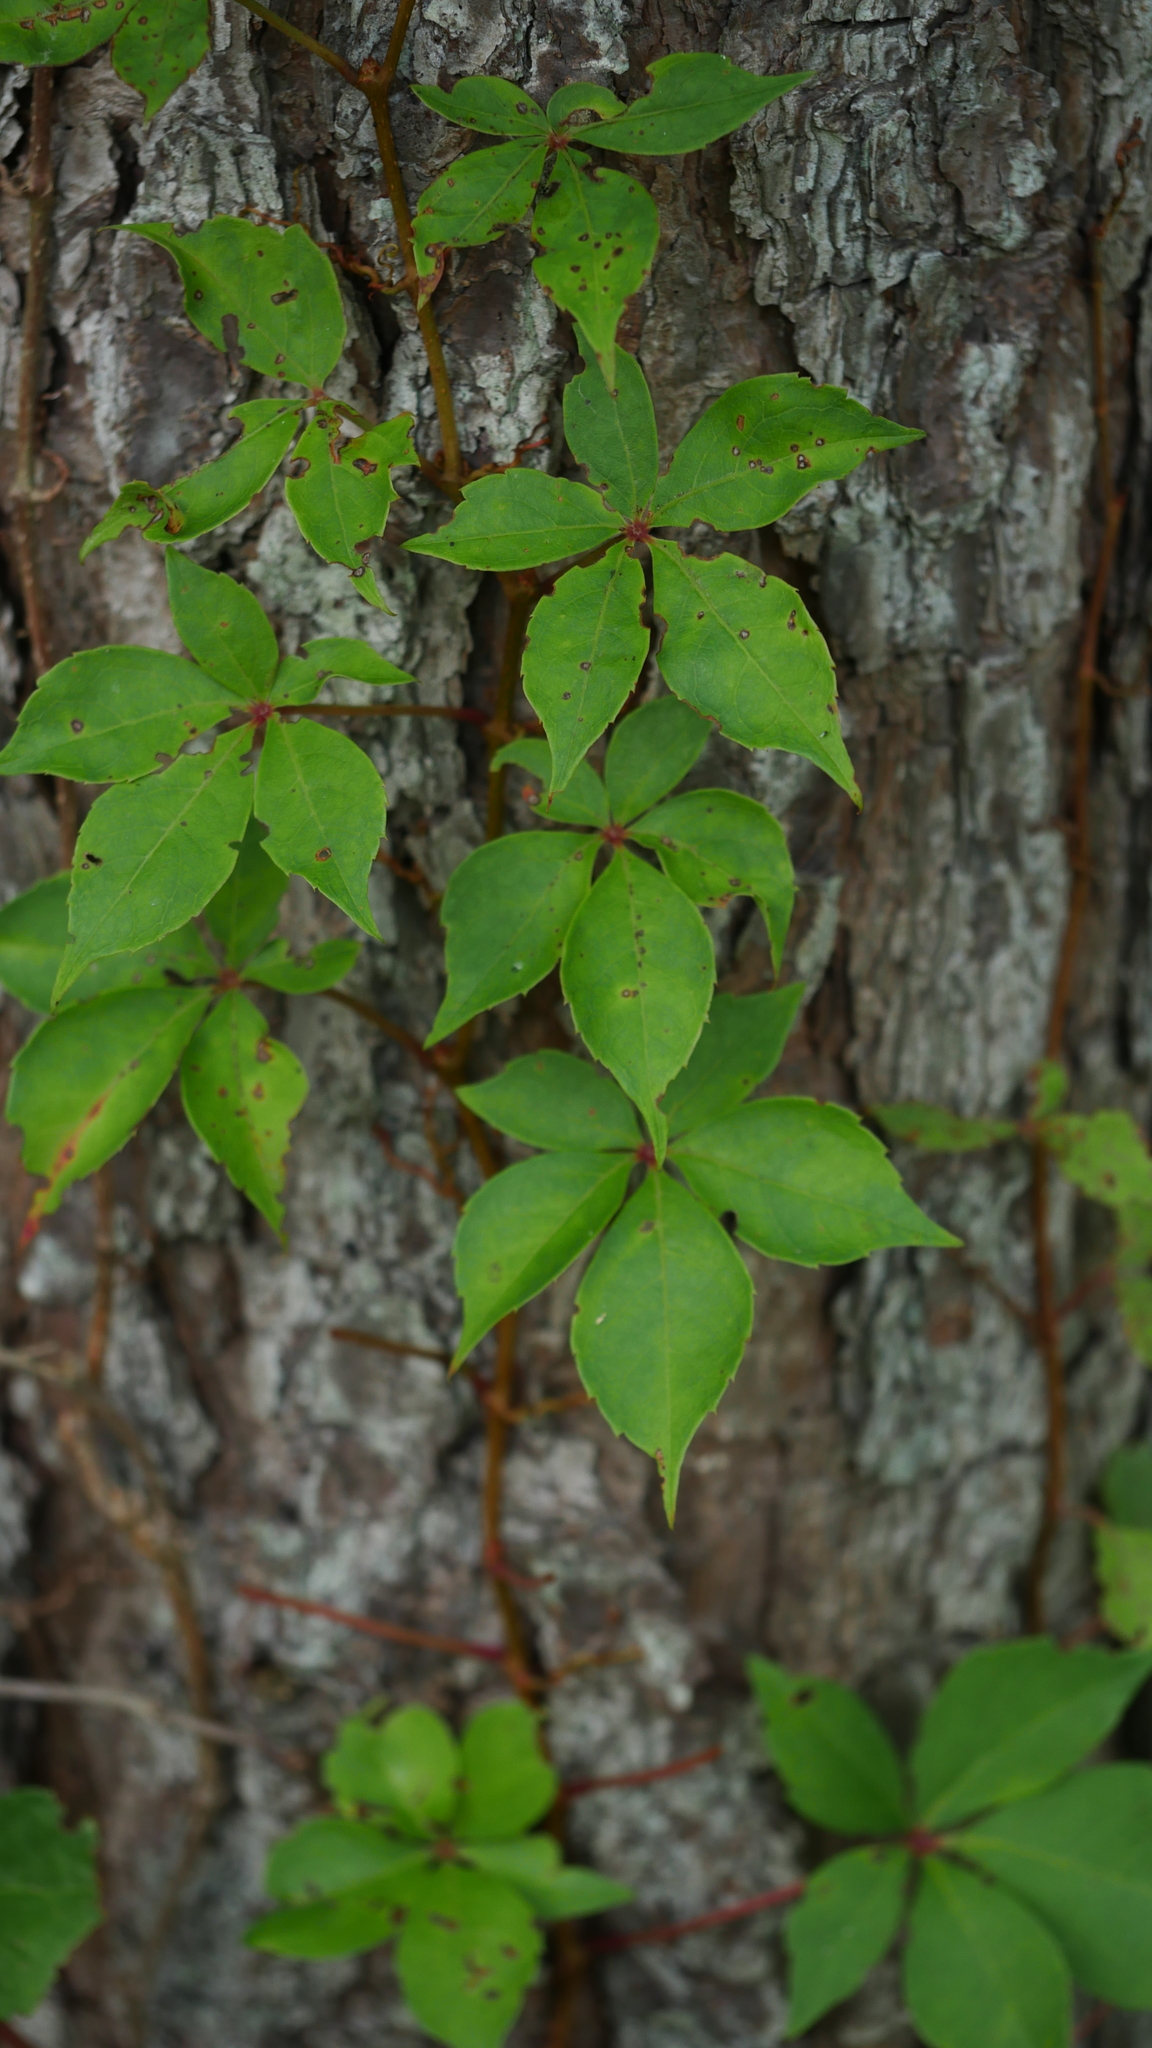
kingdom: Plantae
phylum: Tracheophyta
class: Magnoliopsida
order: Vitales
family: Vitaceae
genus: Parthenocissus
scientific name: Parthenocissus quinquefolia
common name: Virginia-creeper
